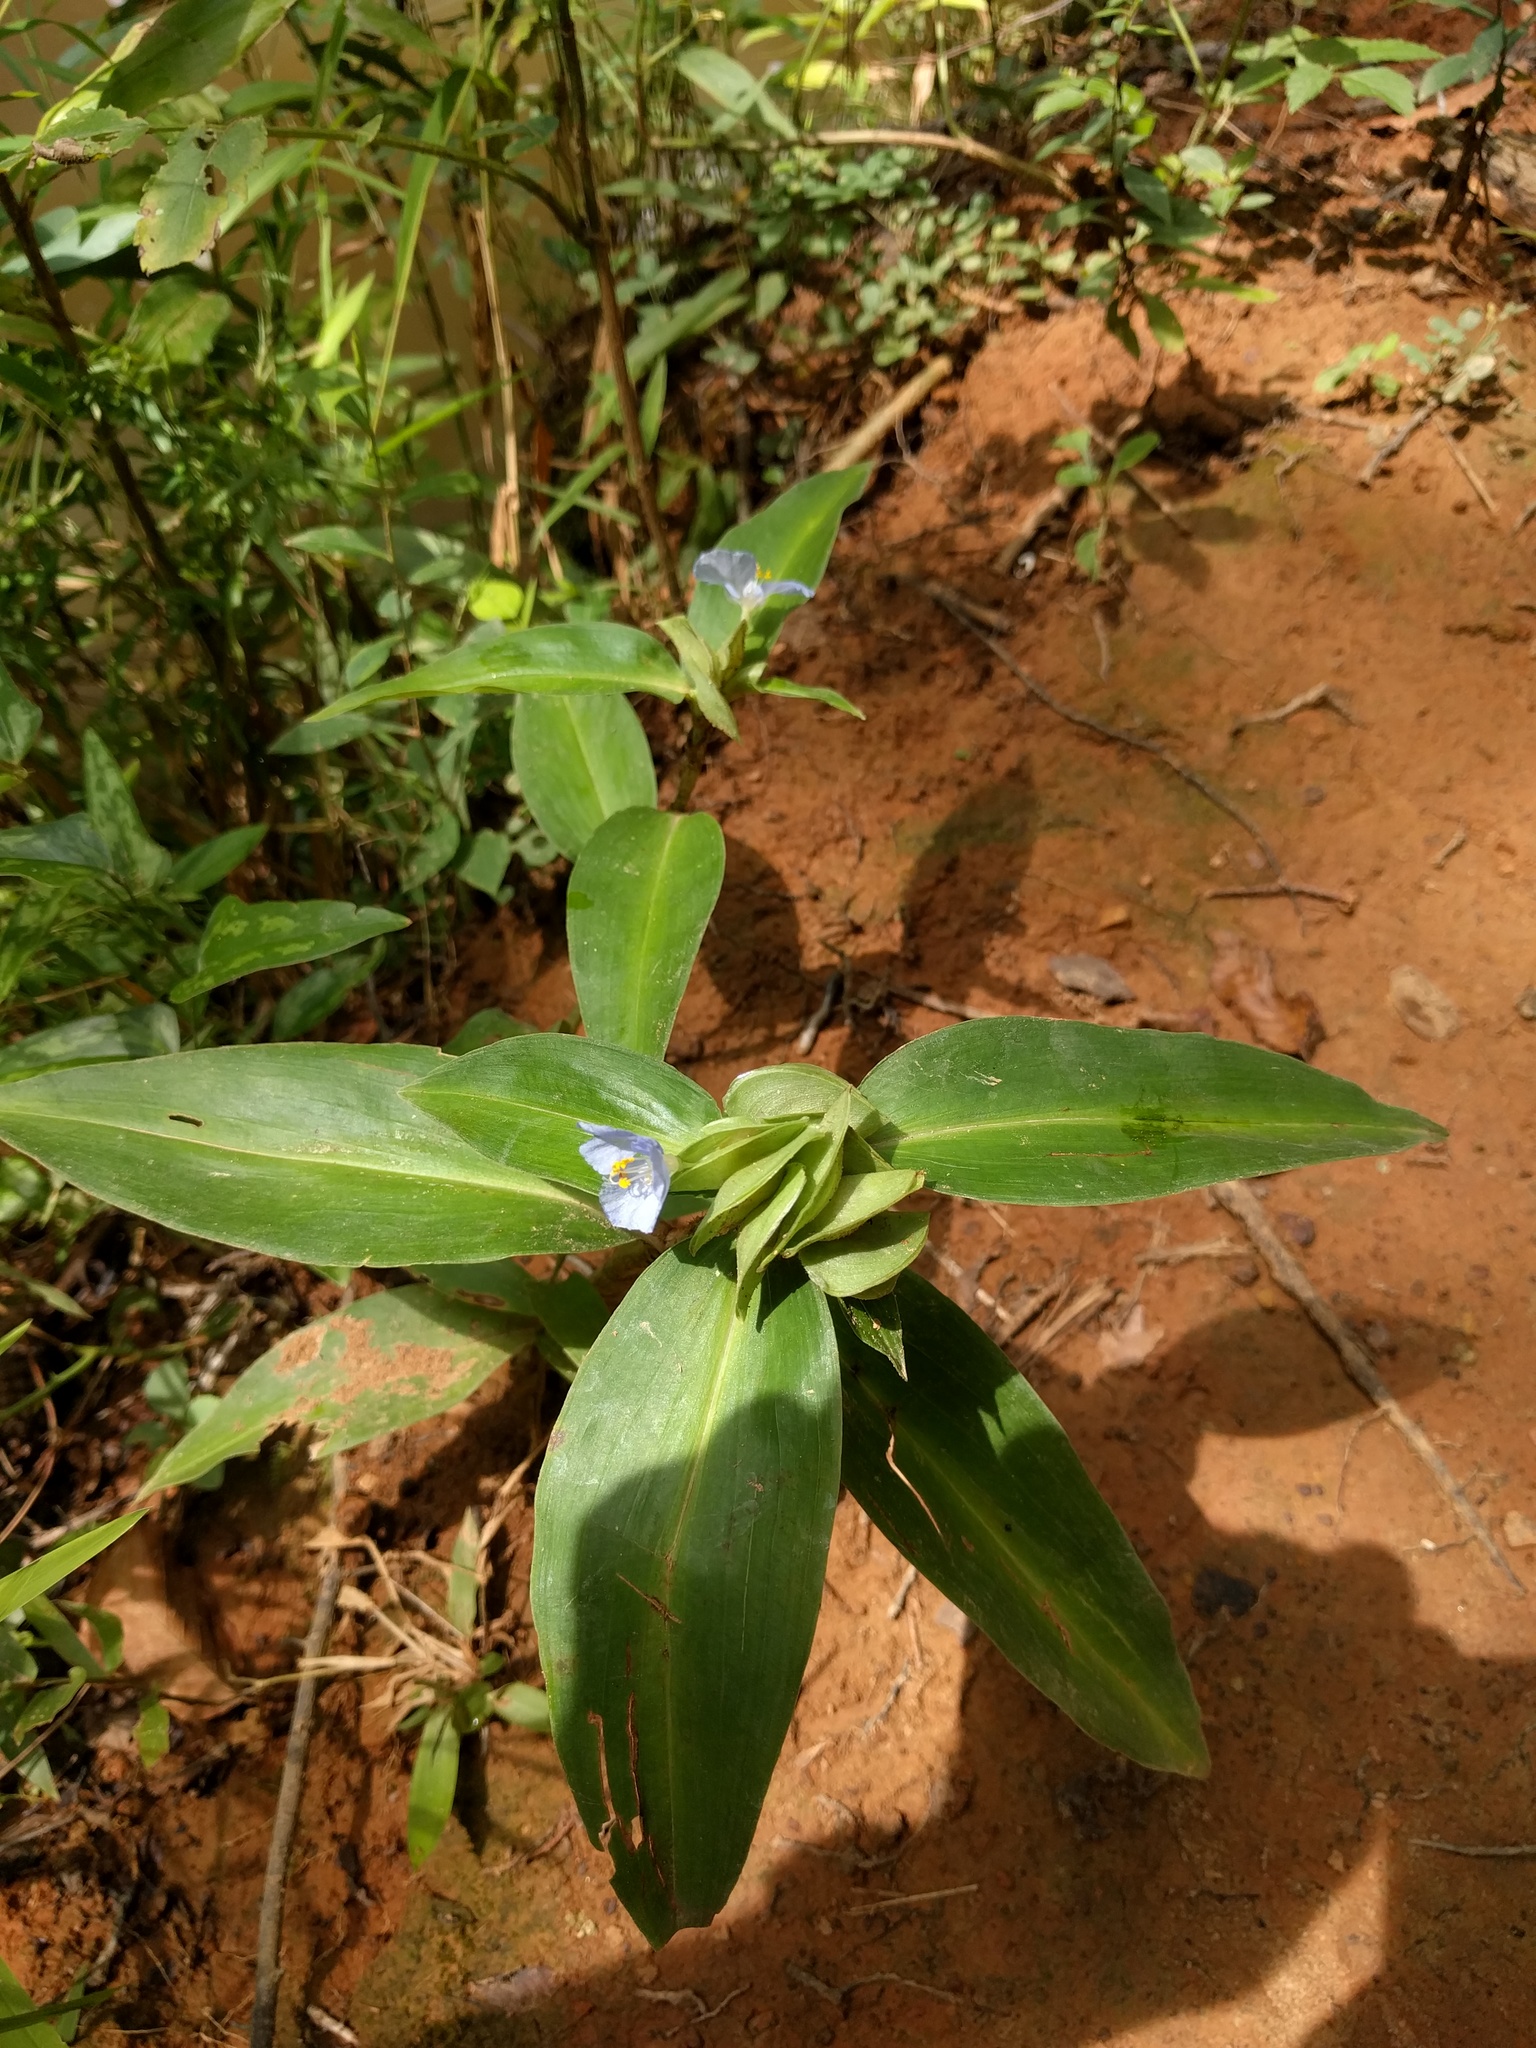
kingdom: Plantae
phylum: Tracheophyta
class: Liliopsida
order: Commelinales
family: Commelinaceae
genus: Commelina
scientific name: Commelina virginica
